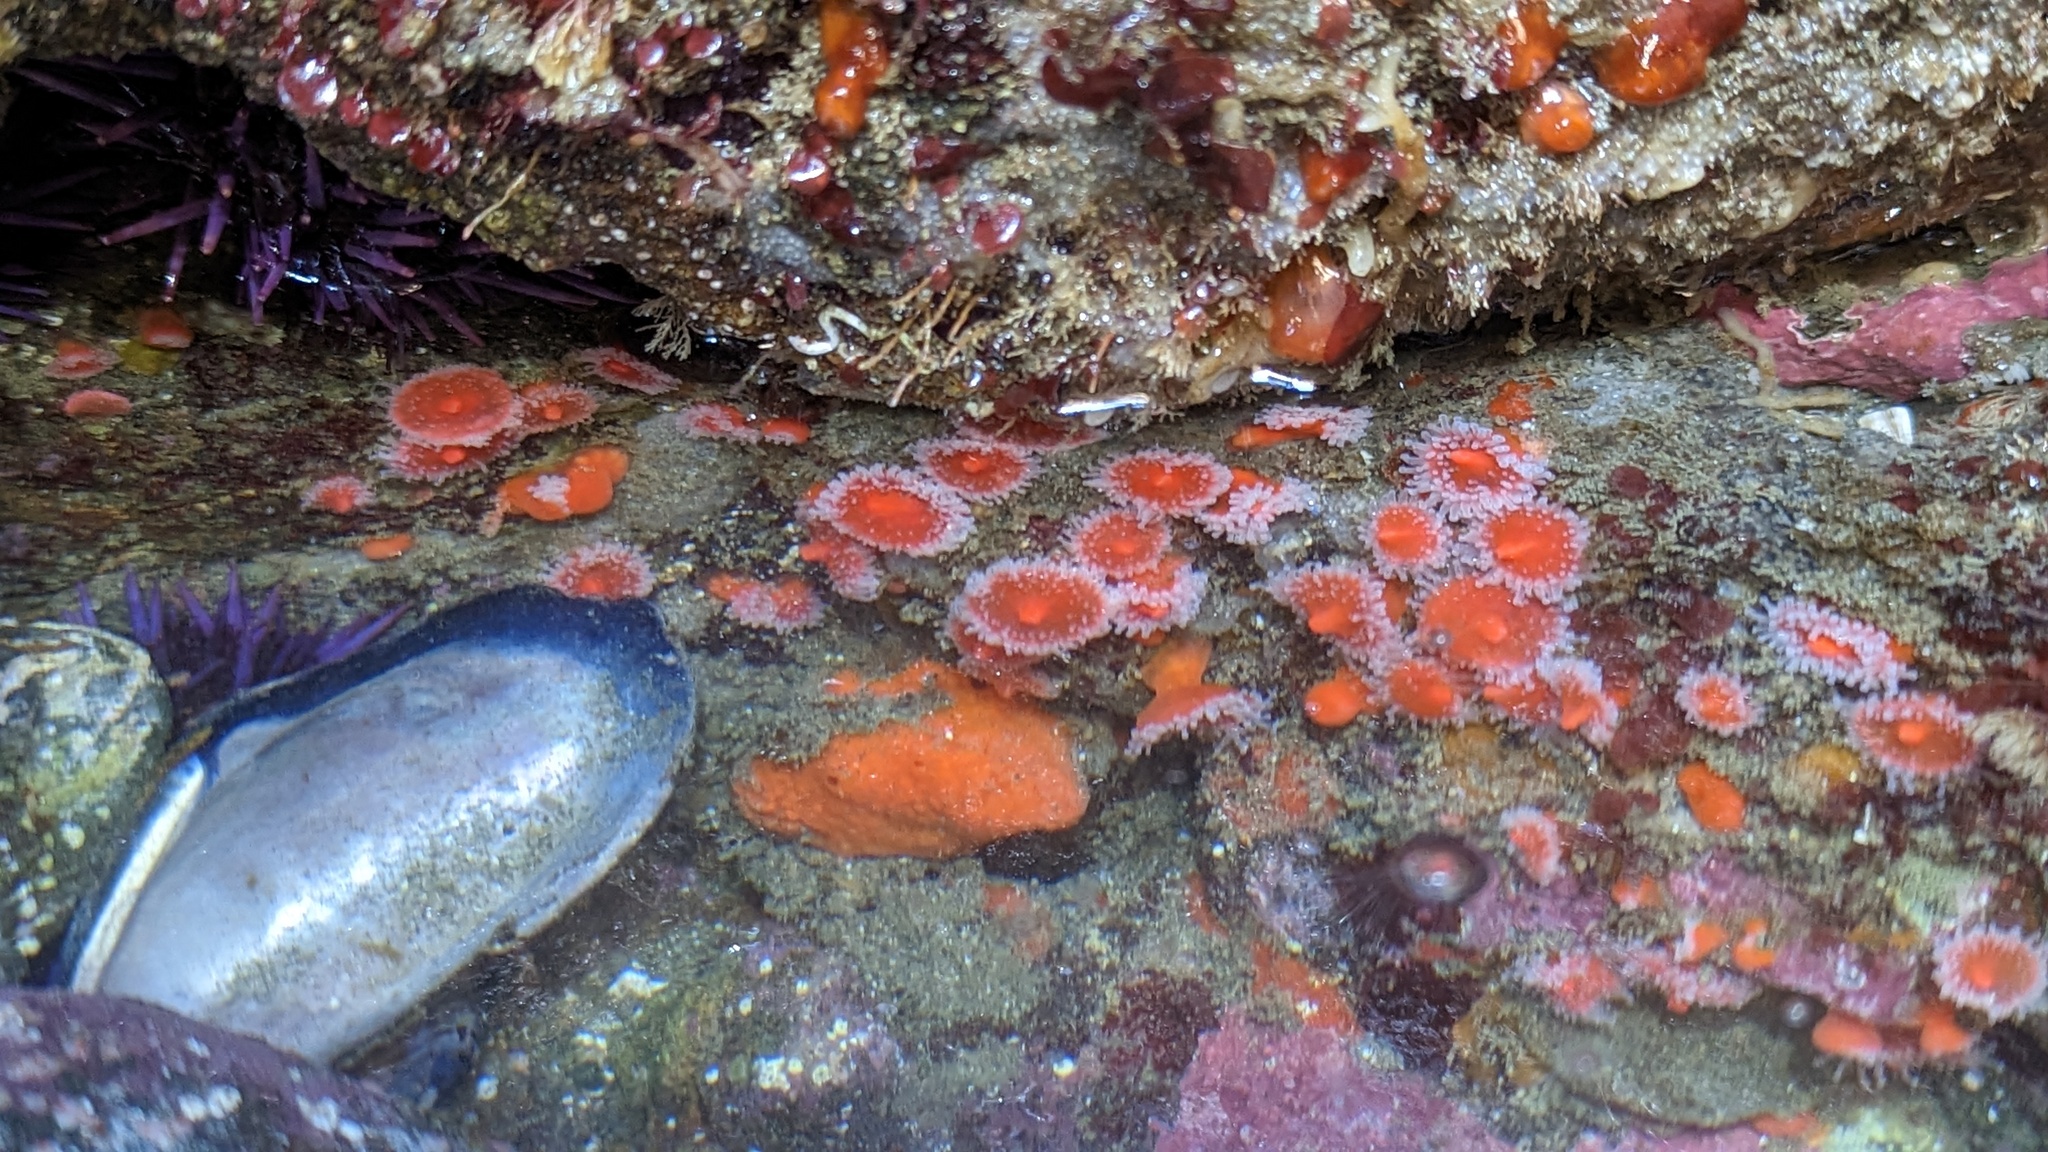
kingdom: Animalia
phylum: Cnidaria
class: Anthozoa
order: Corallimorpharia
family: Corallimorphidae
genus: Corynactis
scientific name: Corynactis californica
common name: Strawberry corallimorpharian
